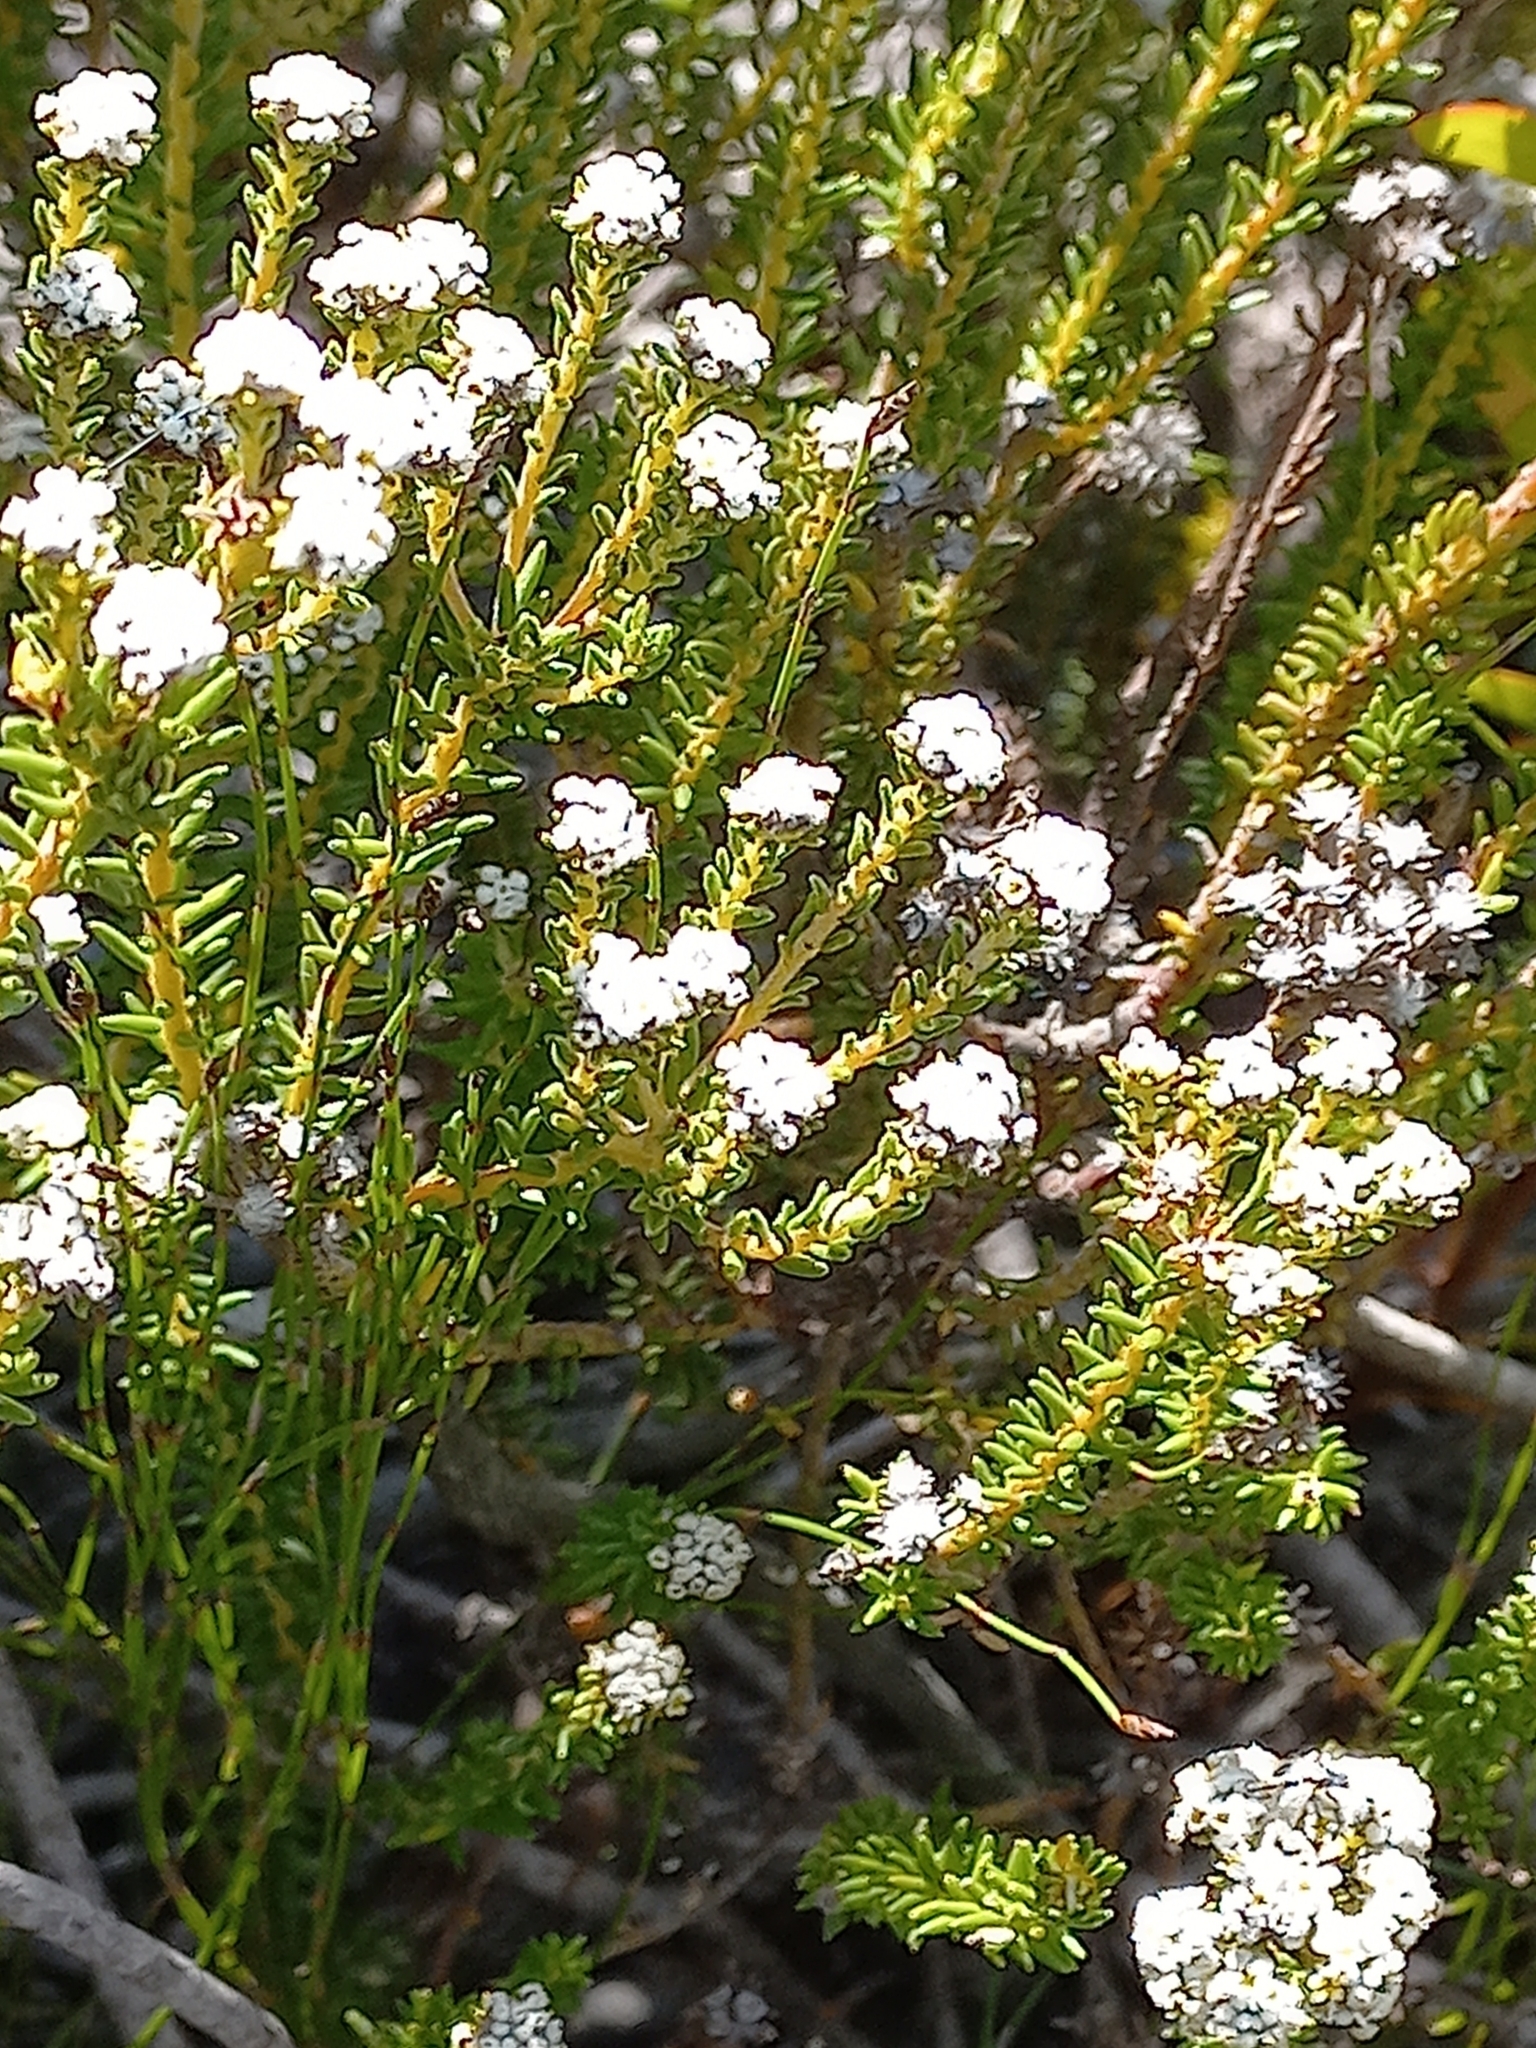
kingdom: Plantae
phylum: Tracheophyta
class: Magnoliopsida
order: Rosales
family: Rhamnaceae
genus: Phylica
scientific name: Phylica ericoides
